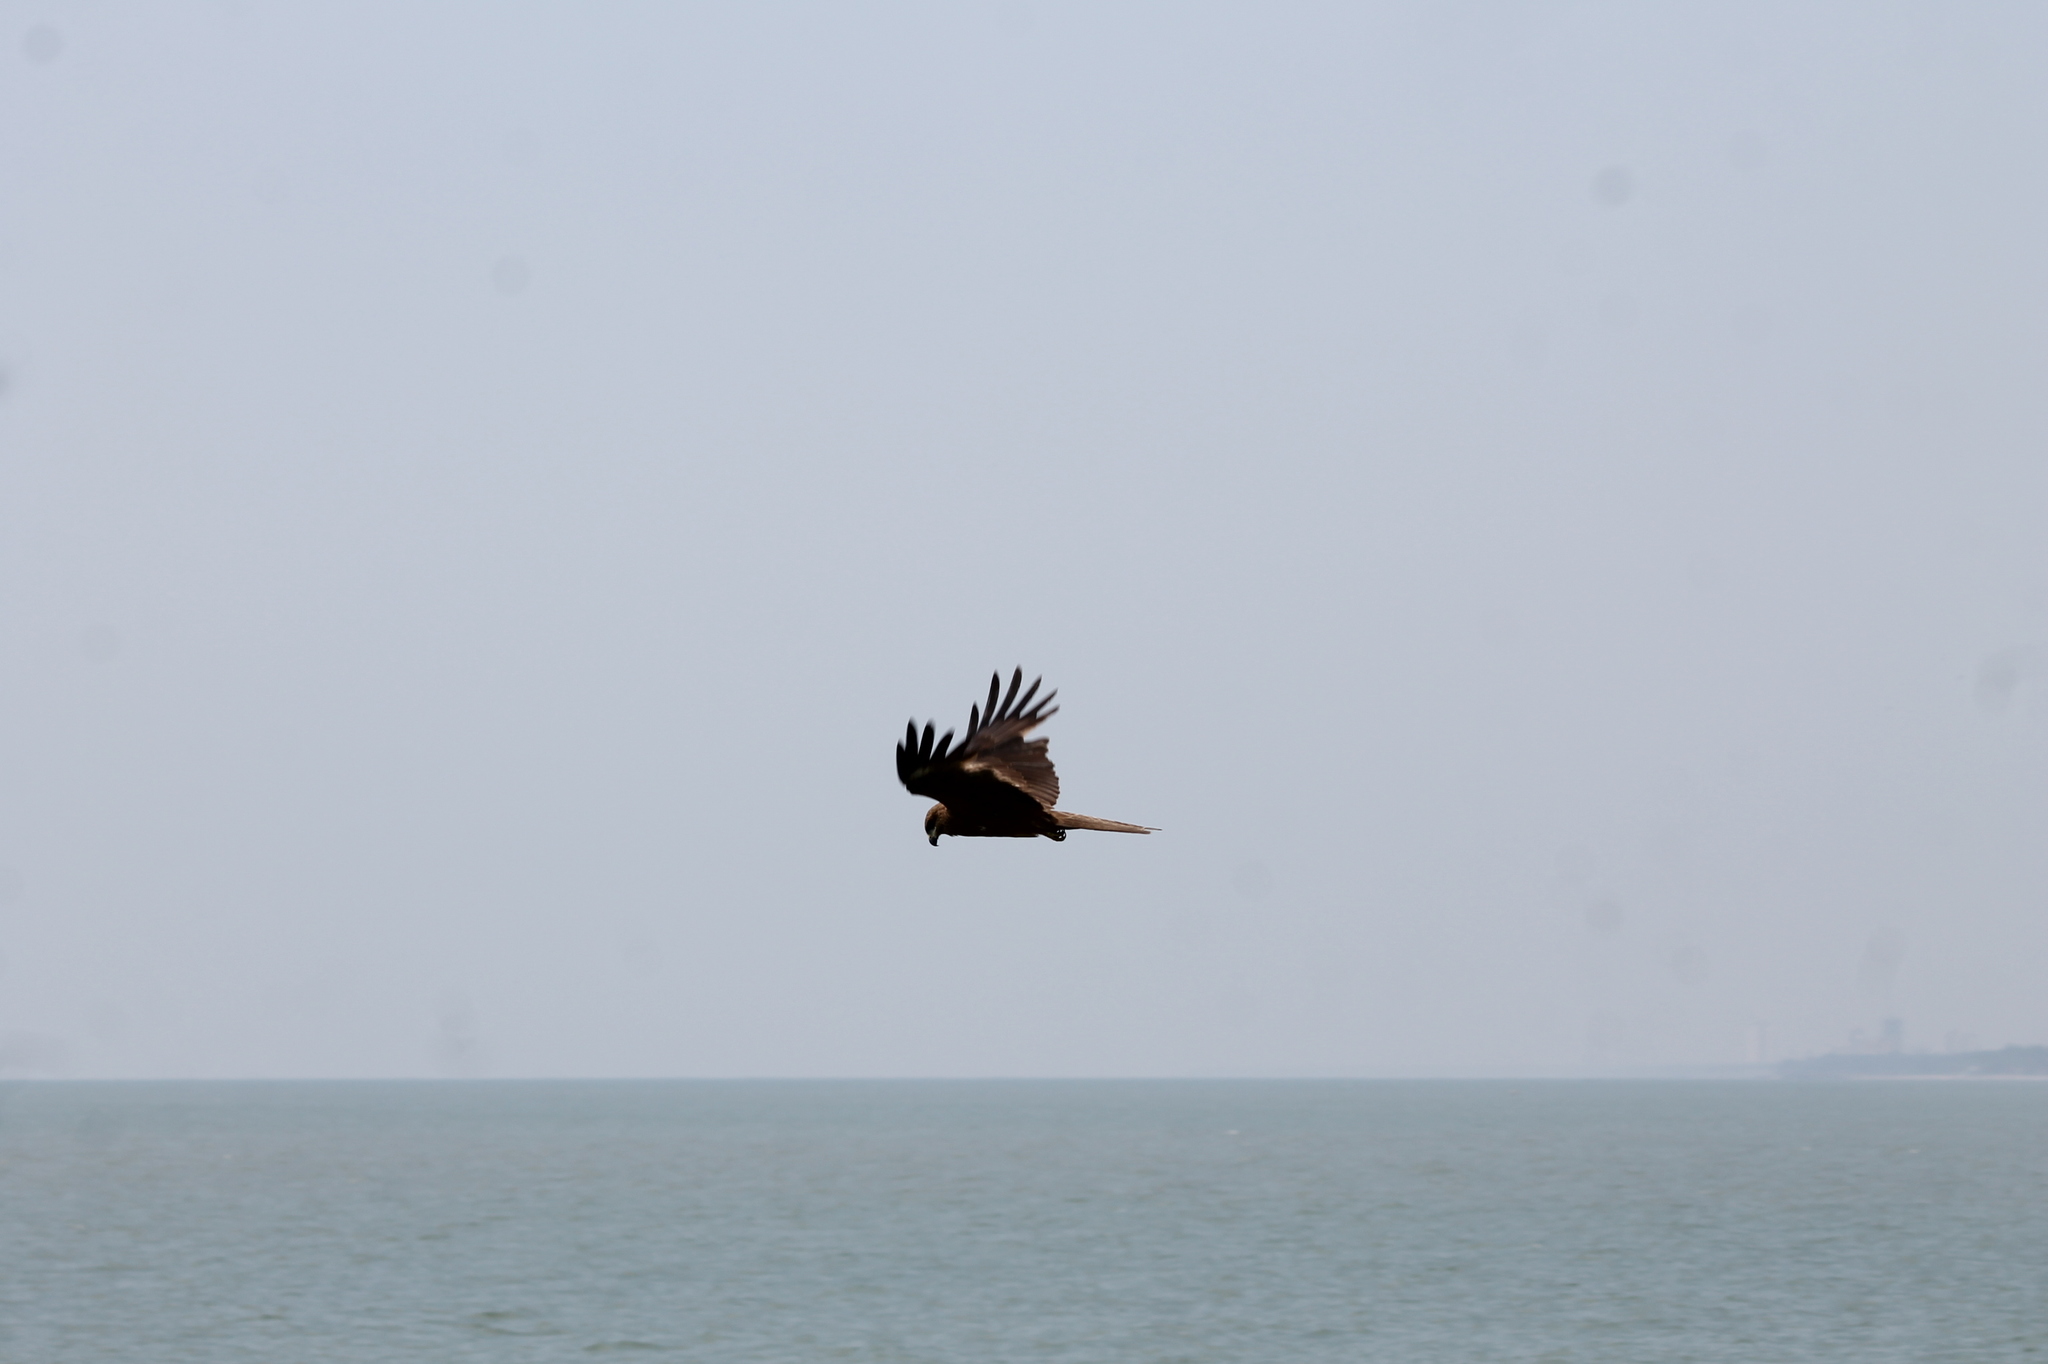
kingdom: Animalia
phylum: Chordata
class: Aves
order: Accipitriformes
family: Accipitridae
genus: Milvus
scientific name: Milvus migrans
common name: Black kite
